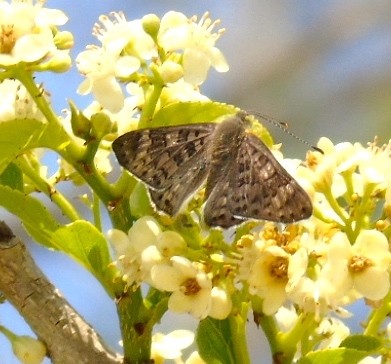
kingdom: Animalia
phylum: Arthropoda
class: Insecta
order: Lepidoptera
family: Riodinidae
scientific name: Riodinidae
